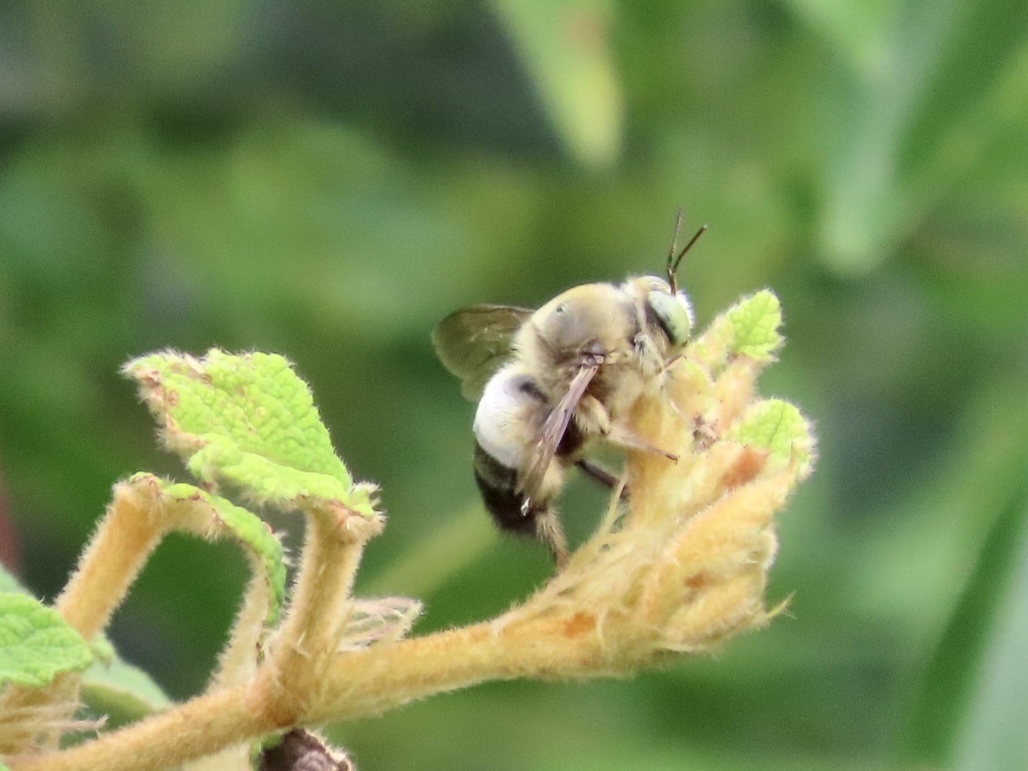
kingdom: Animalia
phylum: Arthropoda
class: Insecta
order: Hymenoptera
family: Apidae
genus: Xylocopa
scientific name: Xylocopa dejeanii
